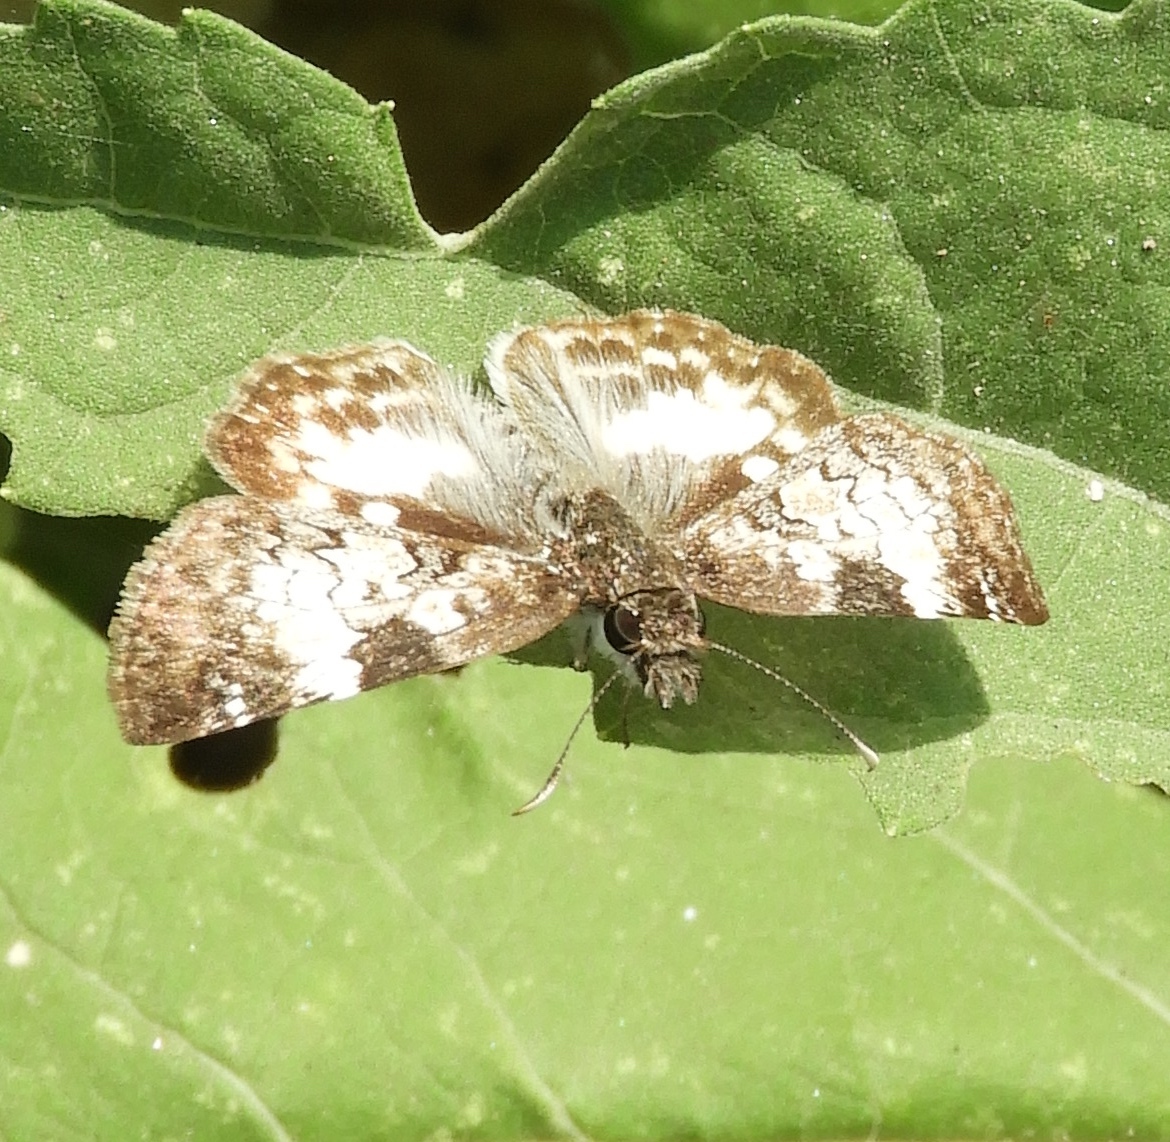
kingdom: Animalia
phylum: Arthropoda
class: Insecta
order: Lepidoptera
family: Hesperiidae
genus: Chiothion
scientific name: Chiothion georgina
